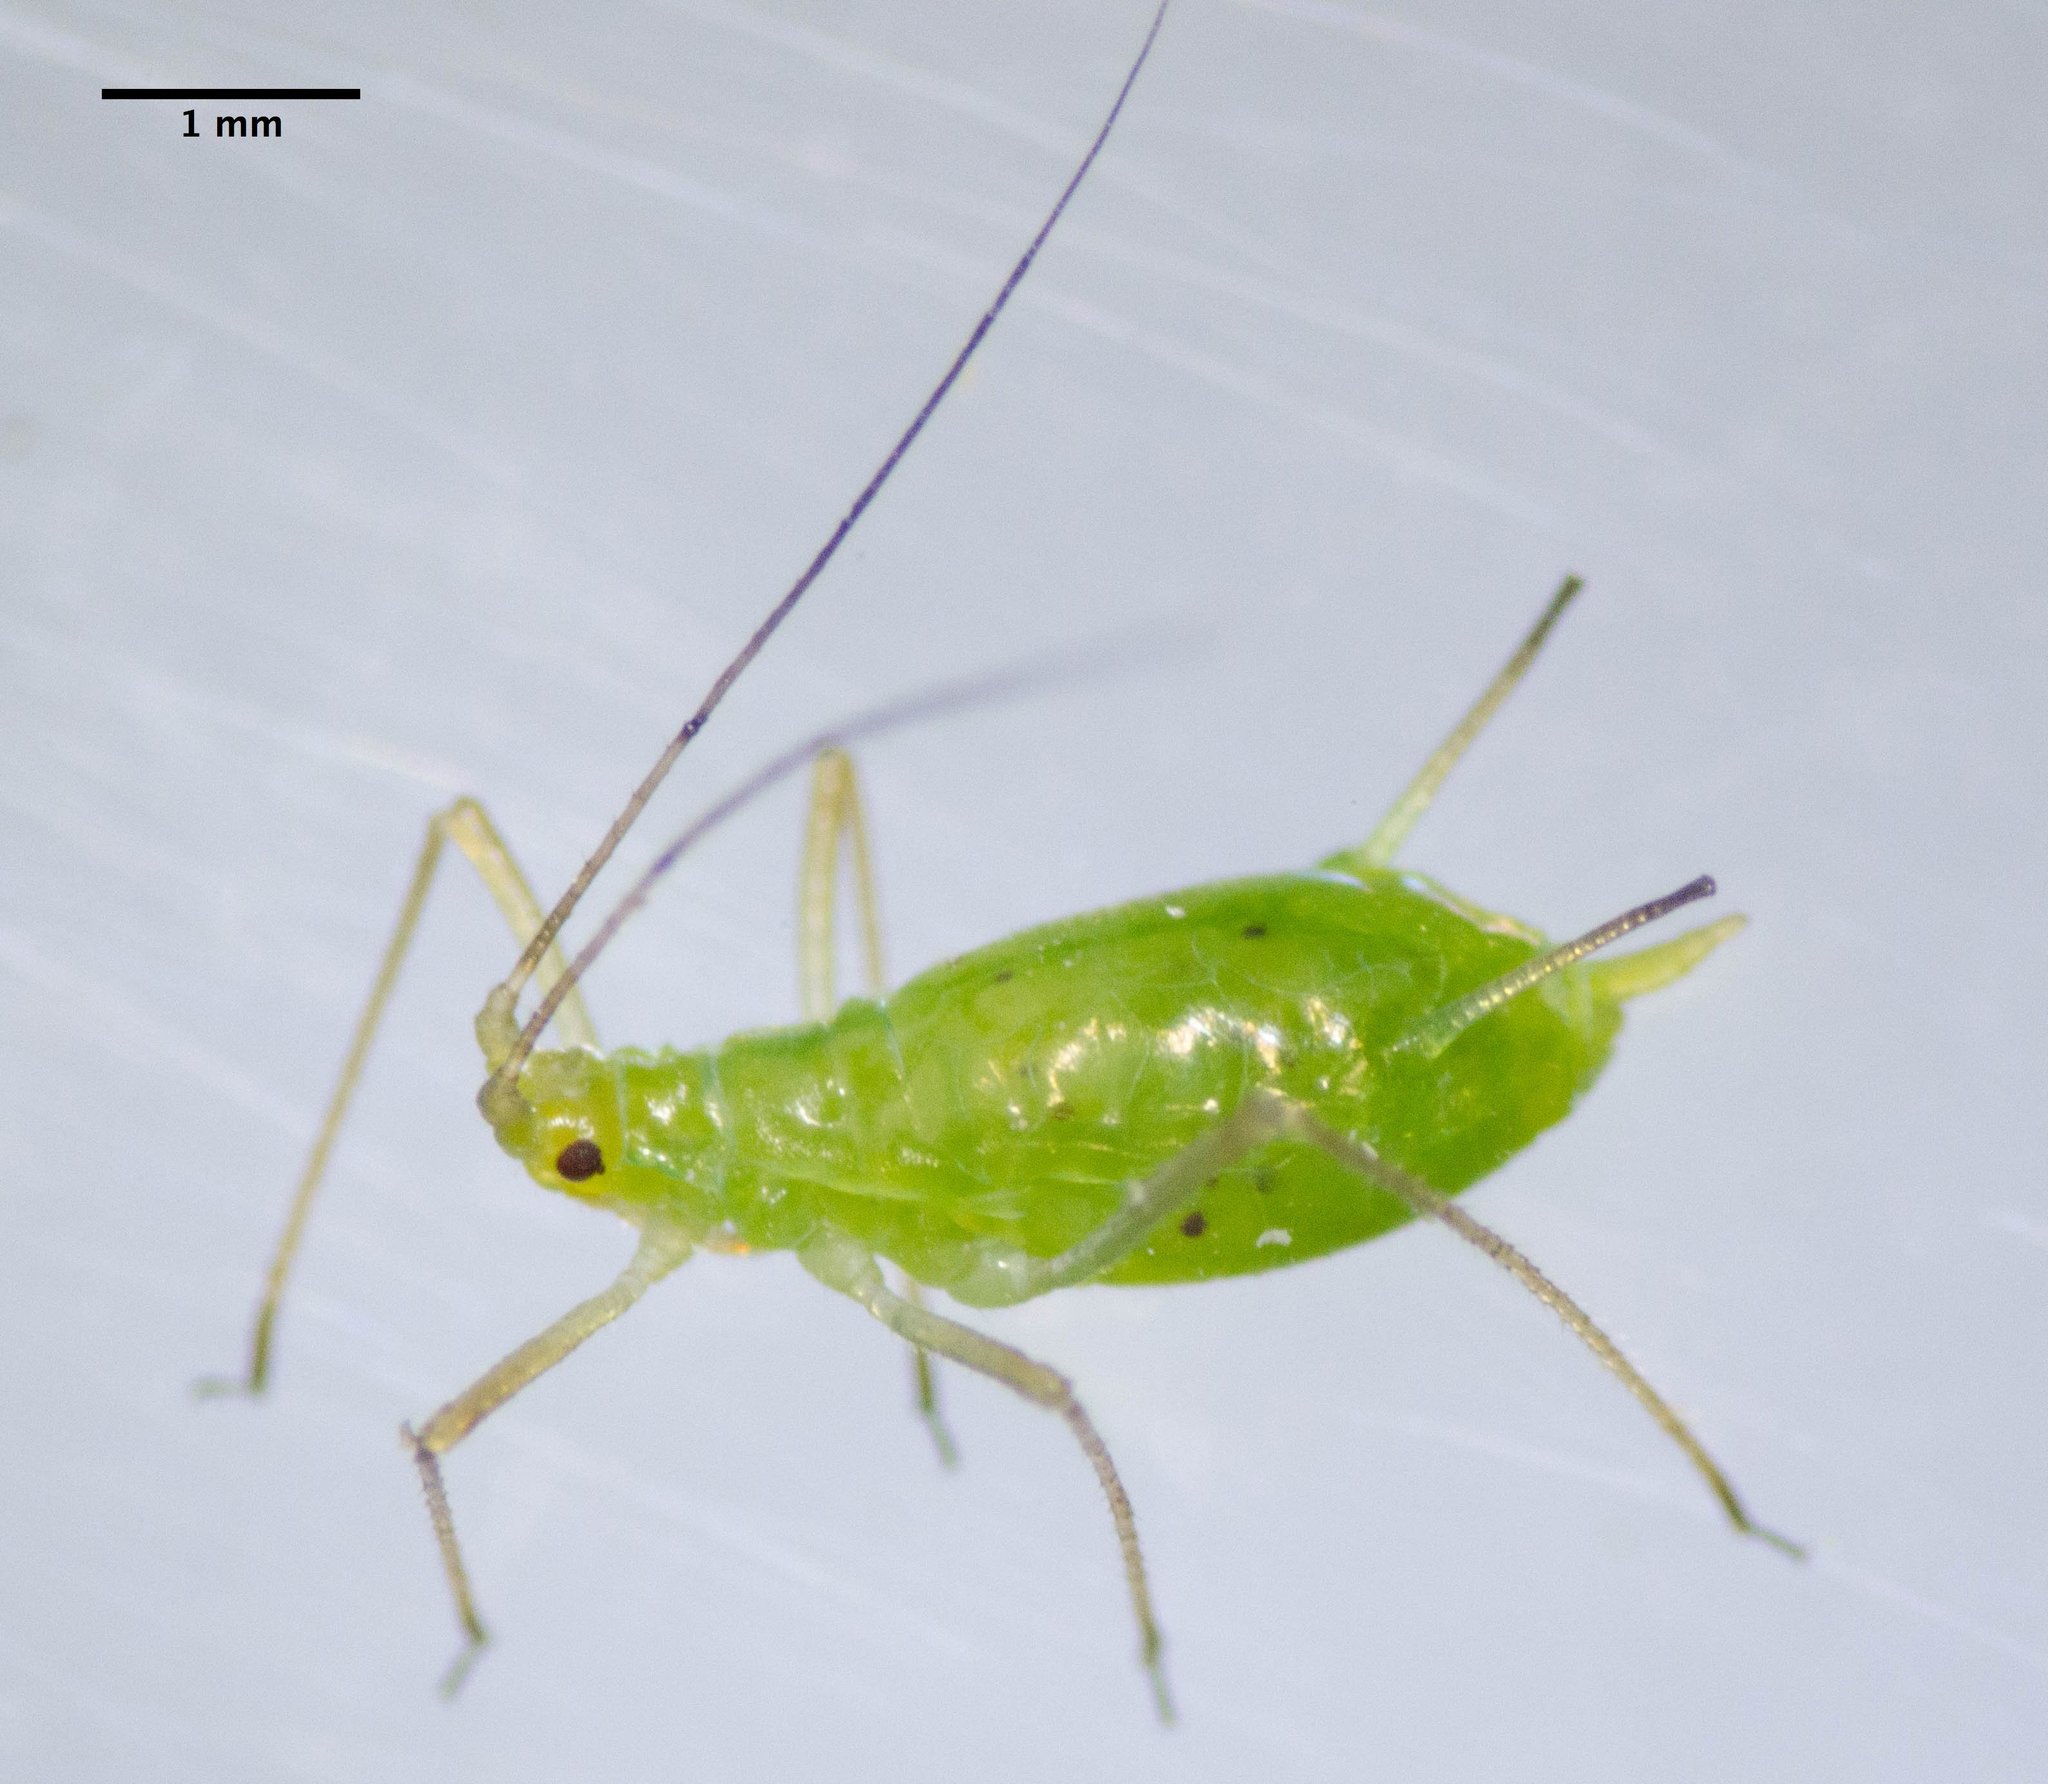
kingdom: Animalia
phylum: Arthropoda
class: Insecta
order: Hemiptera
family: Aphididae
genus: Macrosiphum
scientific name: Macrosiphum euphorbiae
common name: Potato aphid
